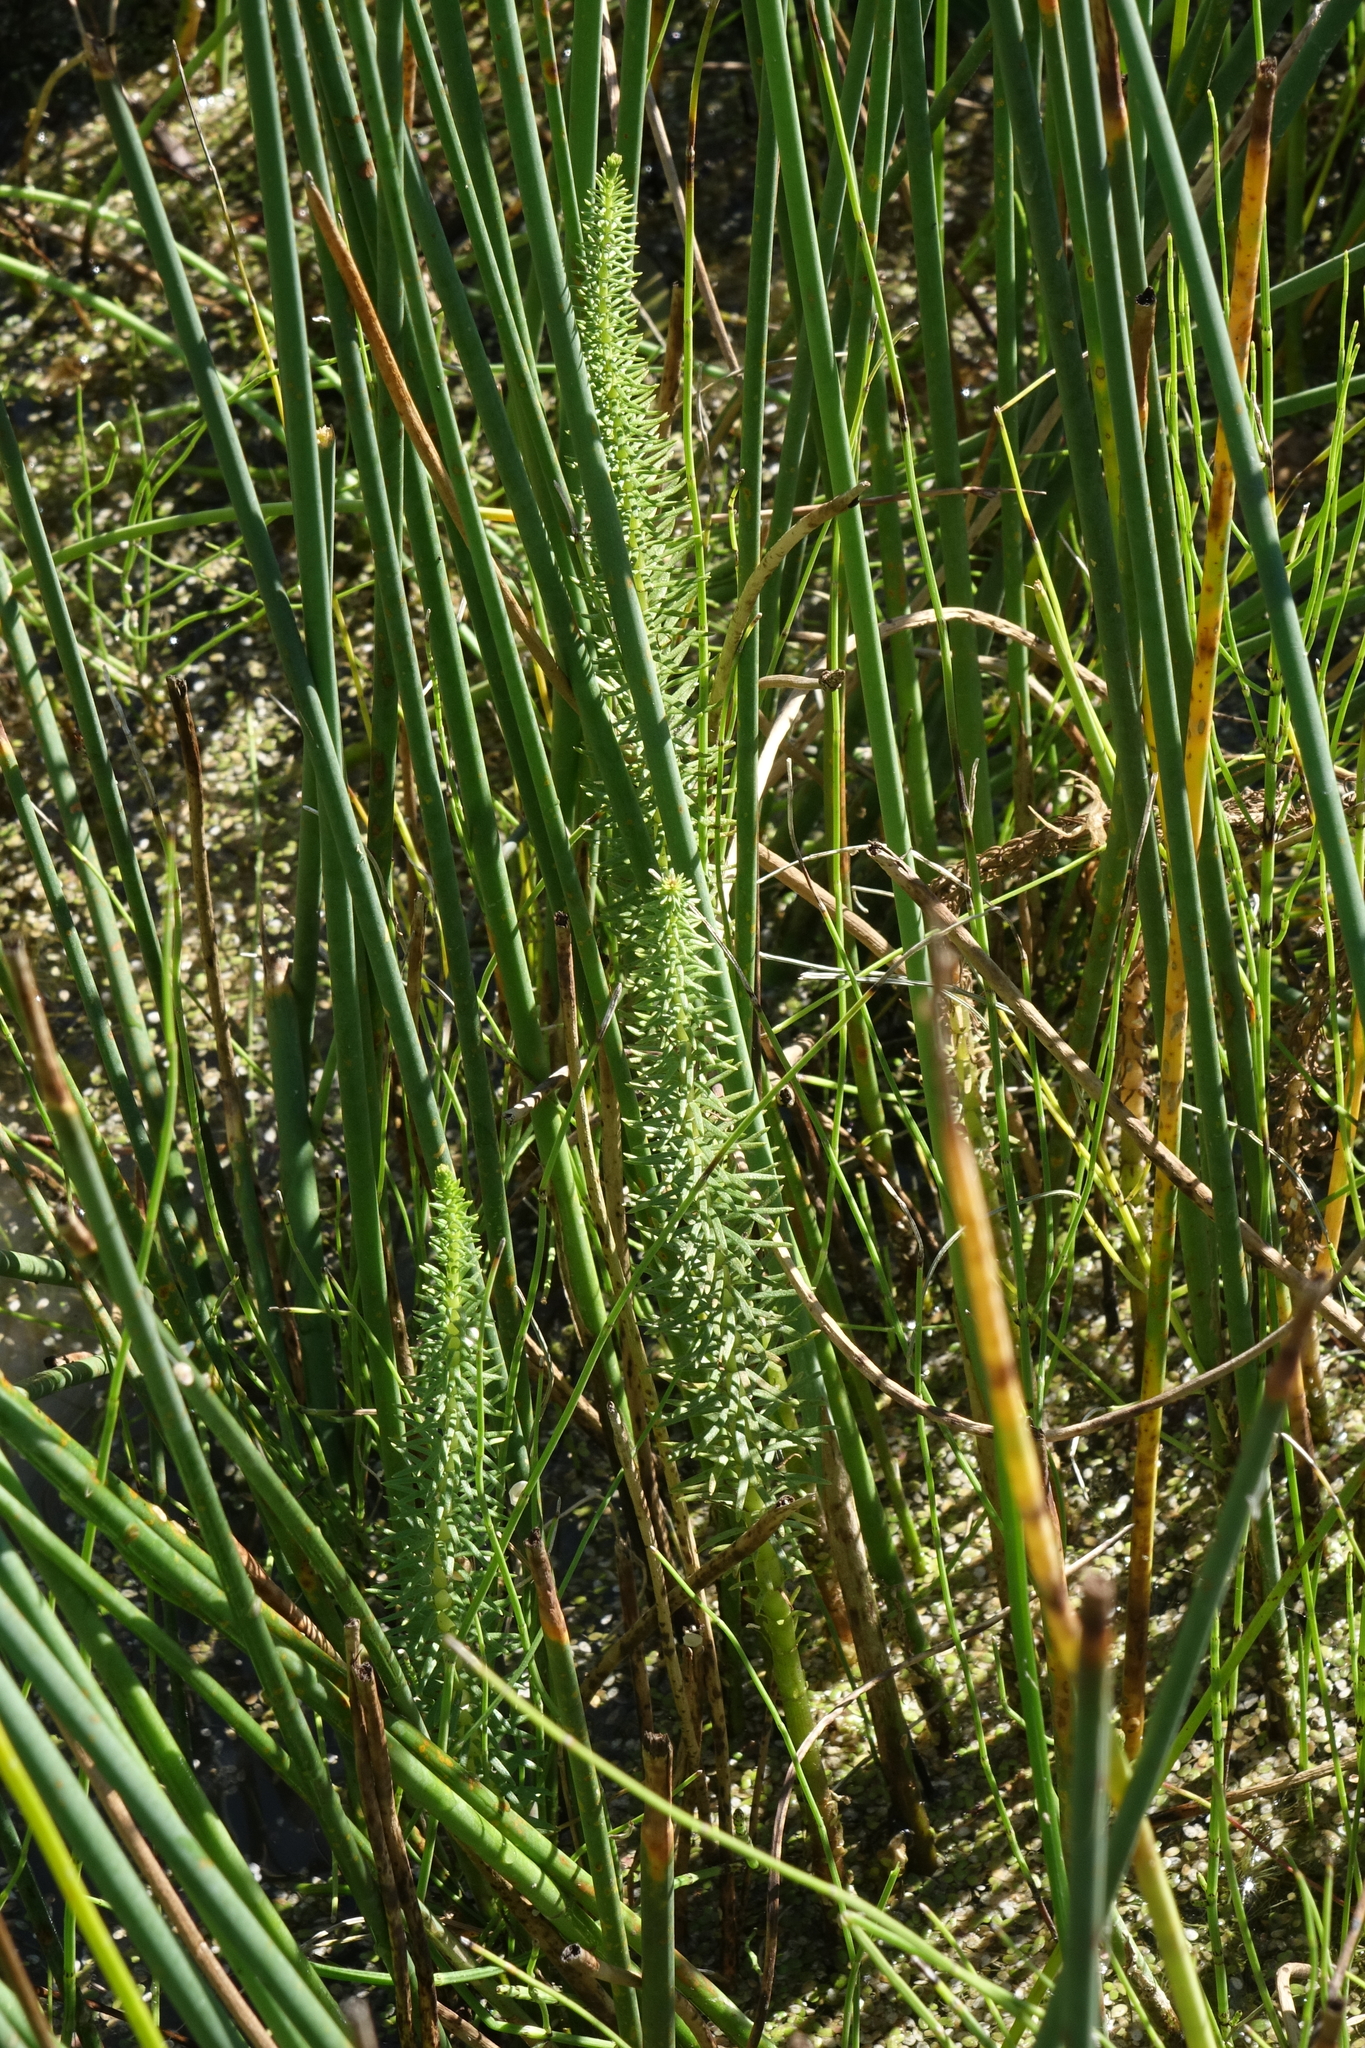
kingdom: Plantae
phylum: Tracheophyta
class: Magnoliopsida
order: Lamiales
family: Plantaginaceae
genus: Hippuris
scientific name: Hippuris vulgaris
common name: Mare's-tail
